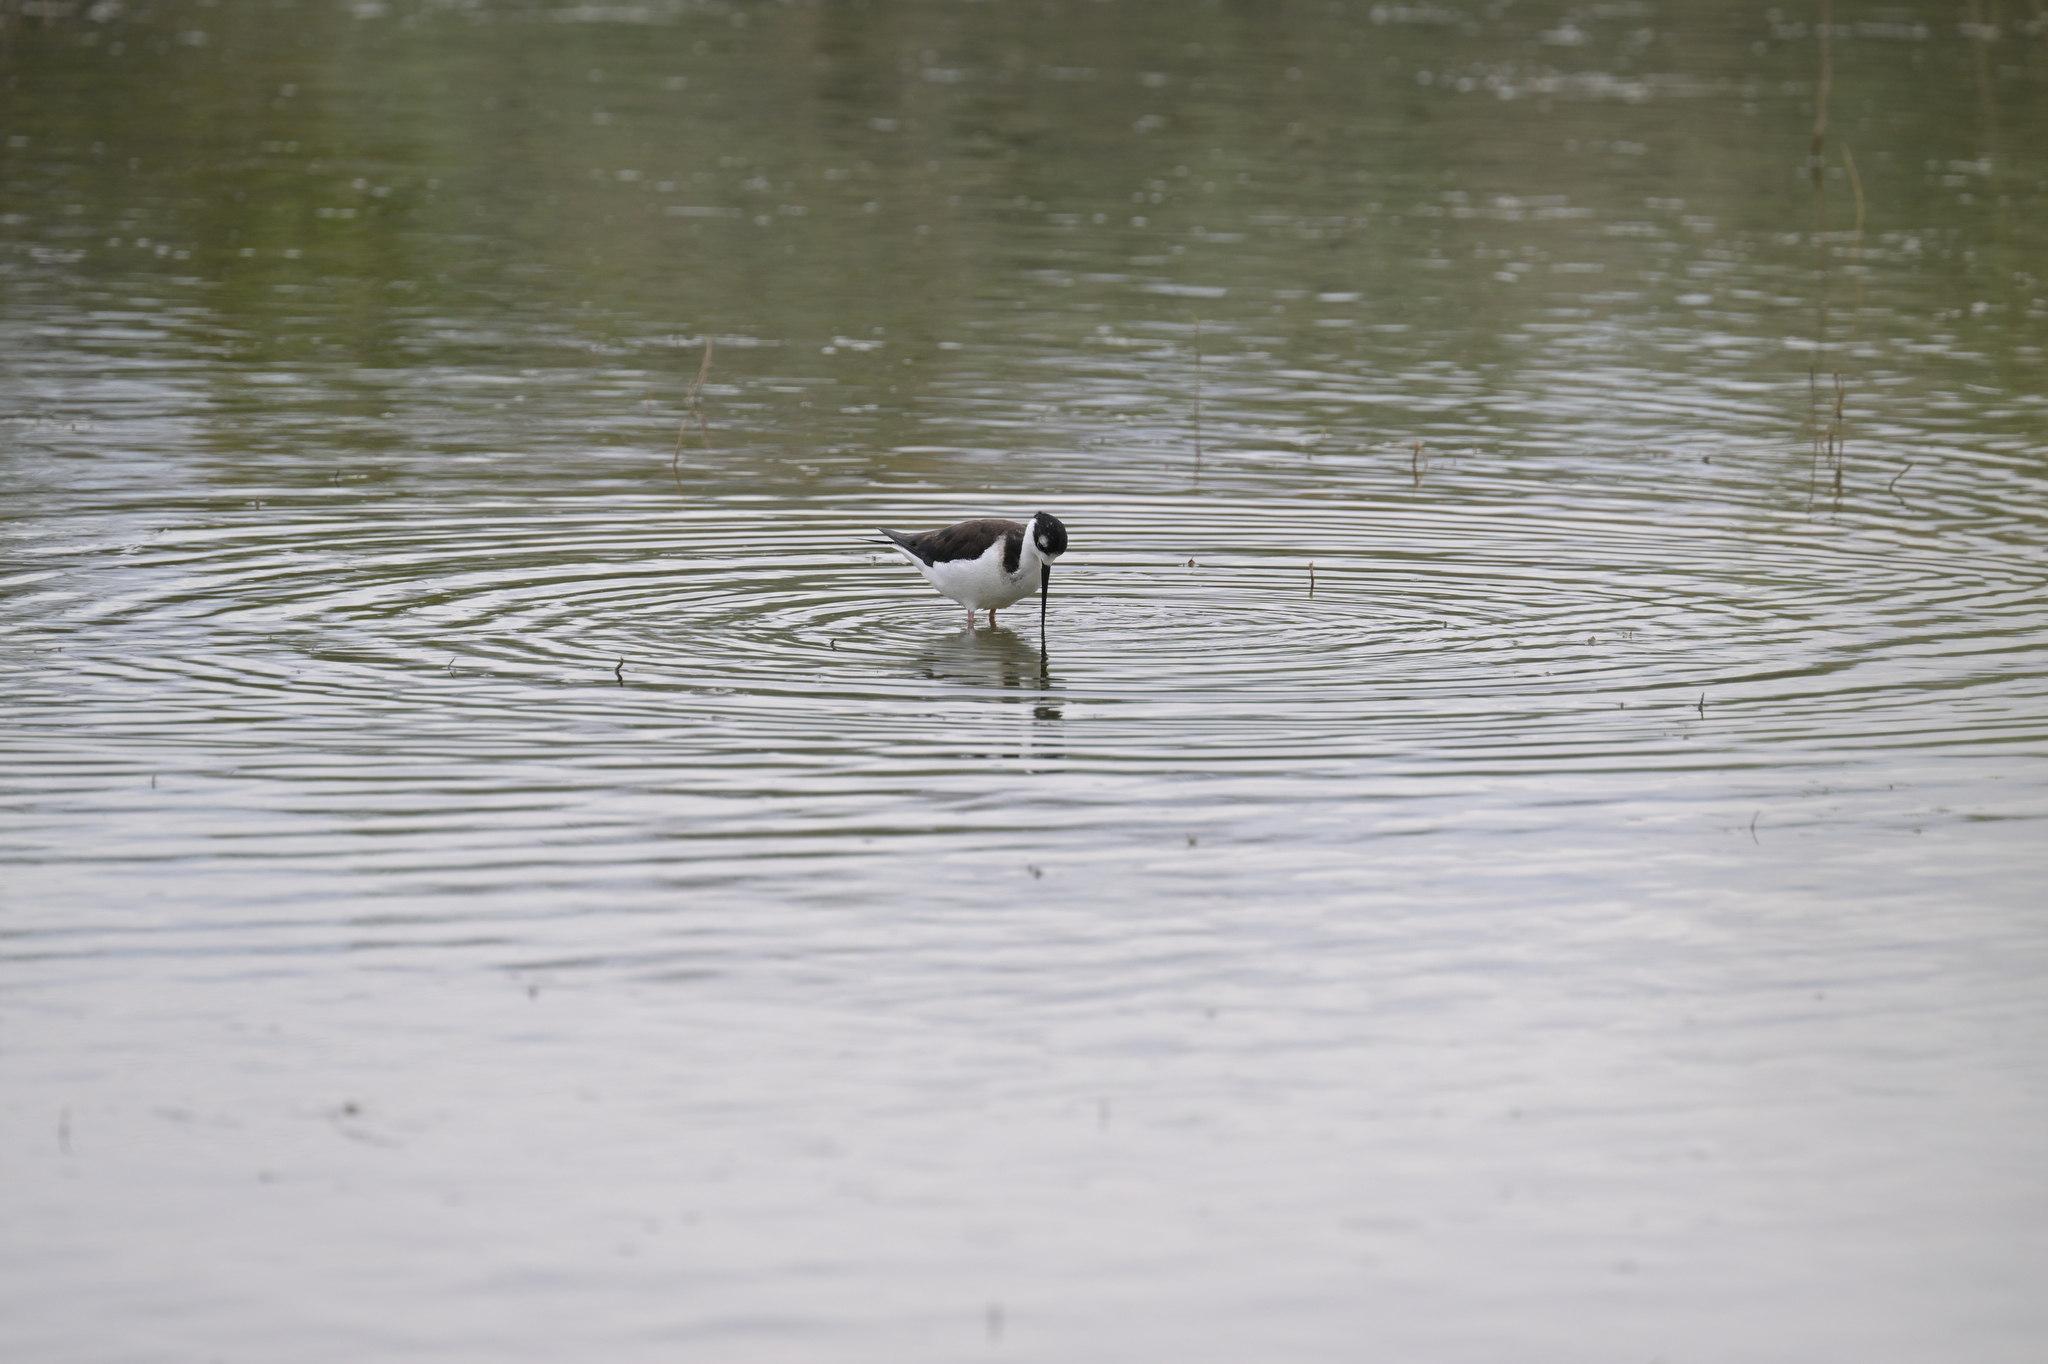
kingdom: Animalia
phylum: Chordata
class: Aves
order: Charadriiformes
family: Recurvirostridae
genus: Himantopus
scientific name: Himantopus mexicanus
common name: Black-necked stilt
